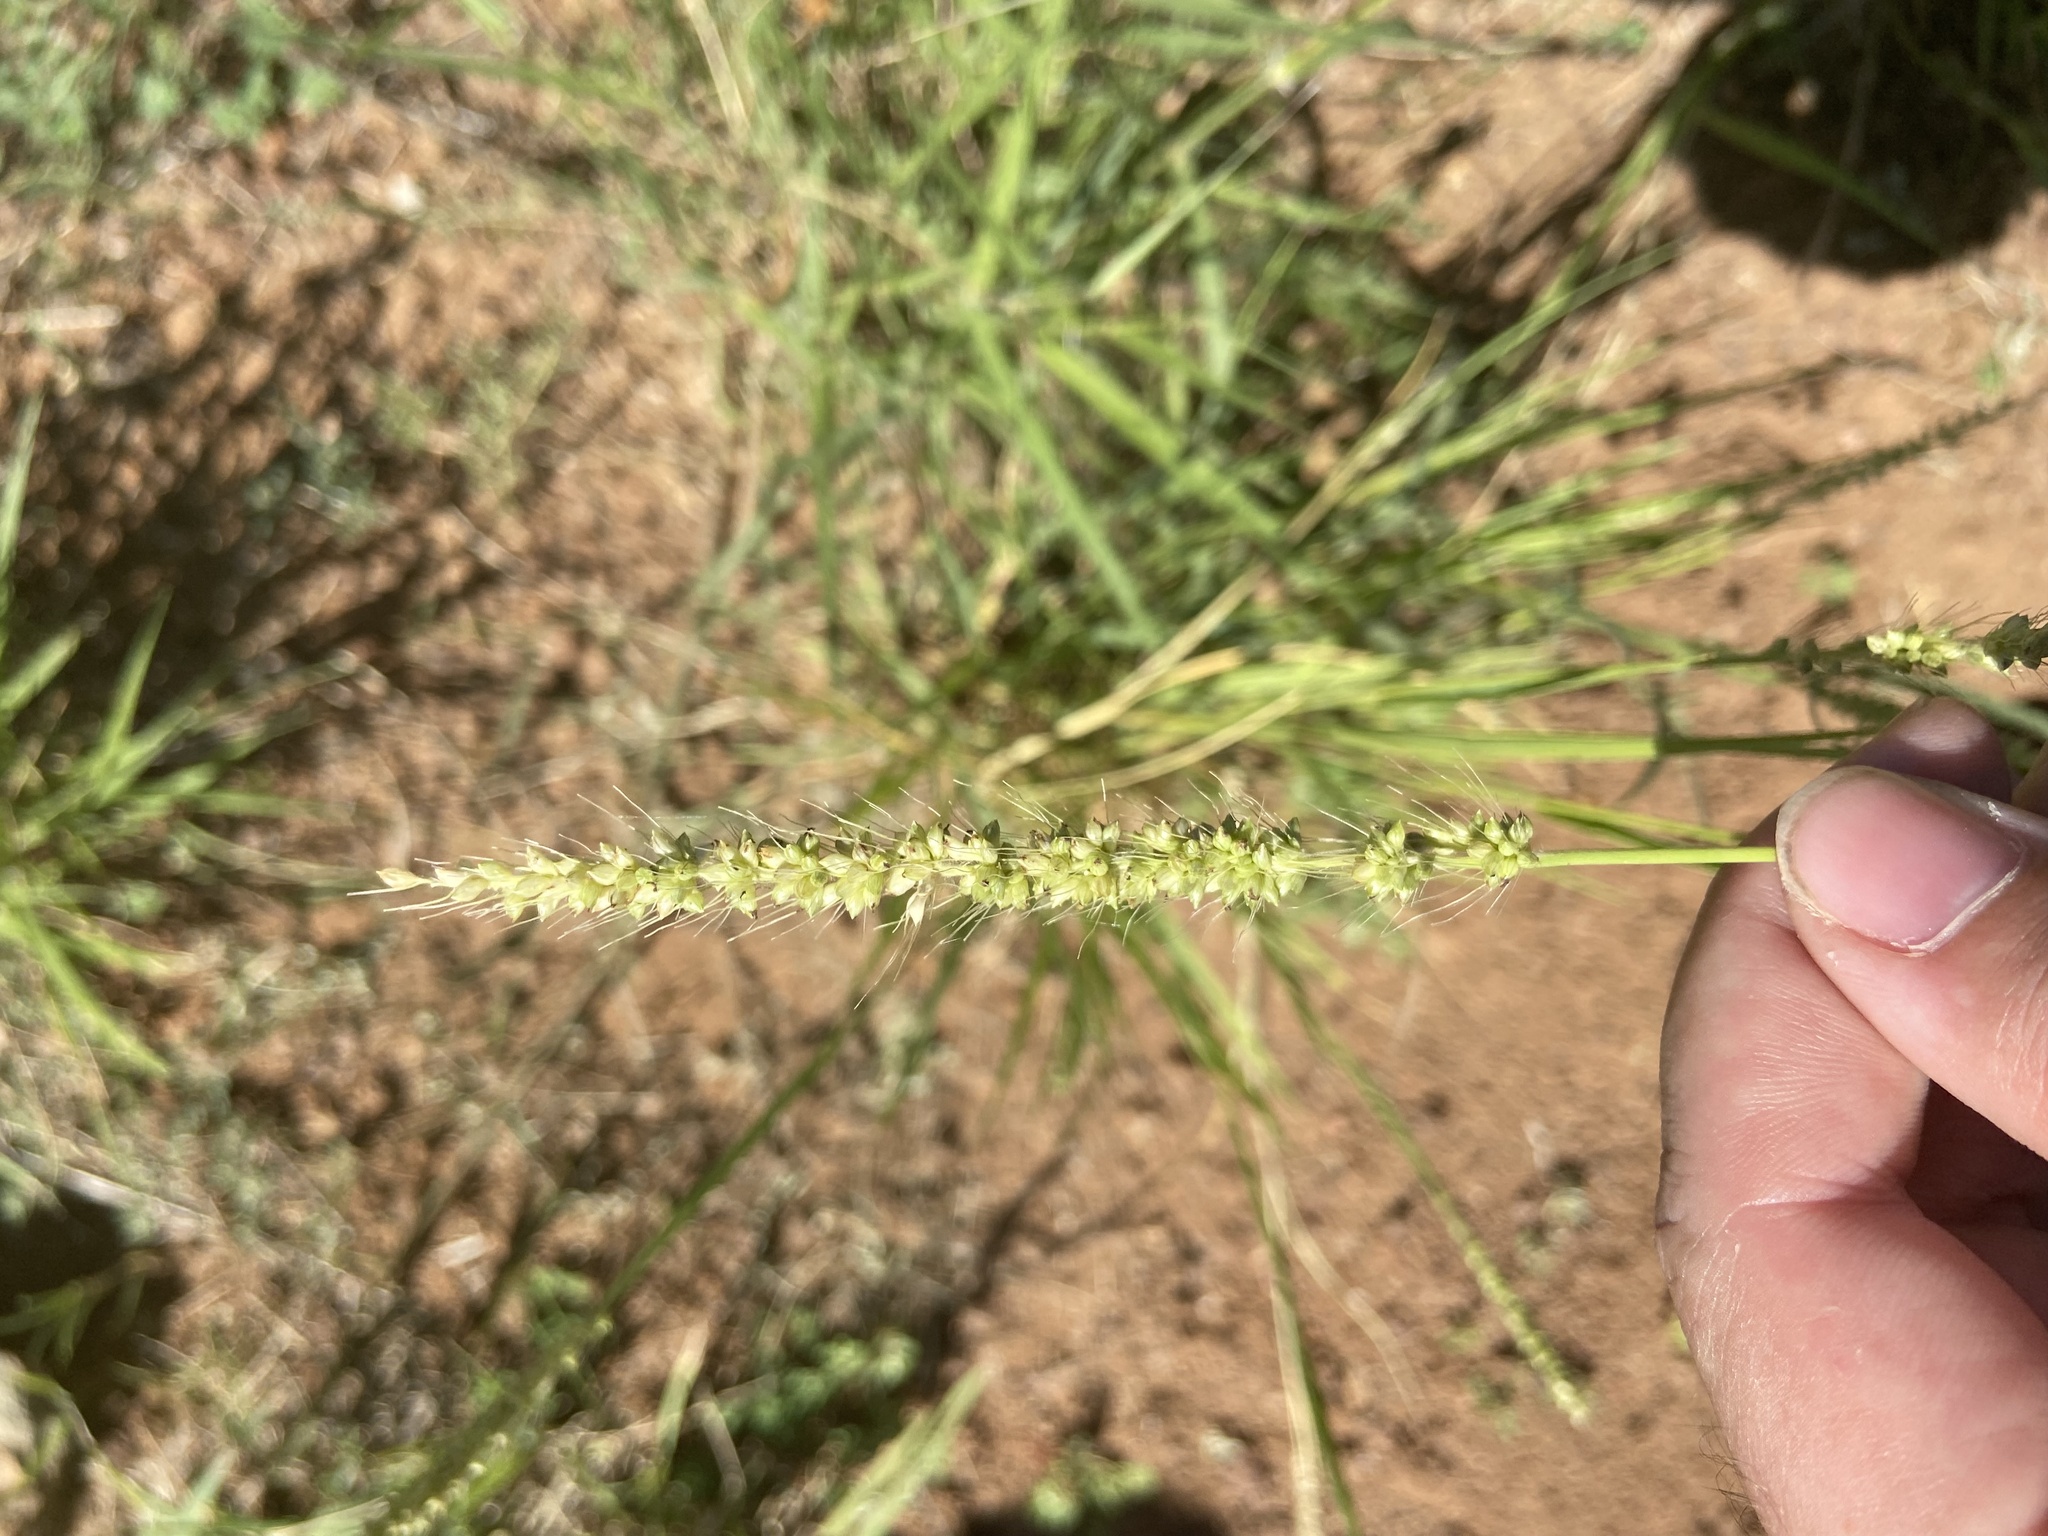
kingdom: Plantae
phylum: Tracheophyta
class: Liliopsida
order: Poales
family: Poaceae
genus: Setaria
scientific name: Setaria leucopila
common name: Plains bristle grass
